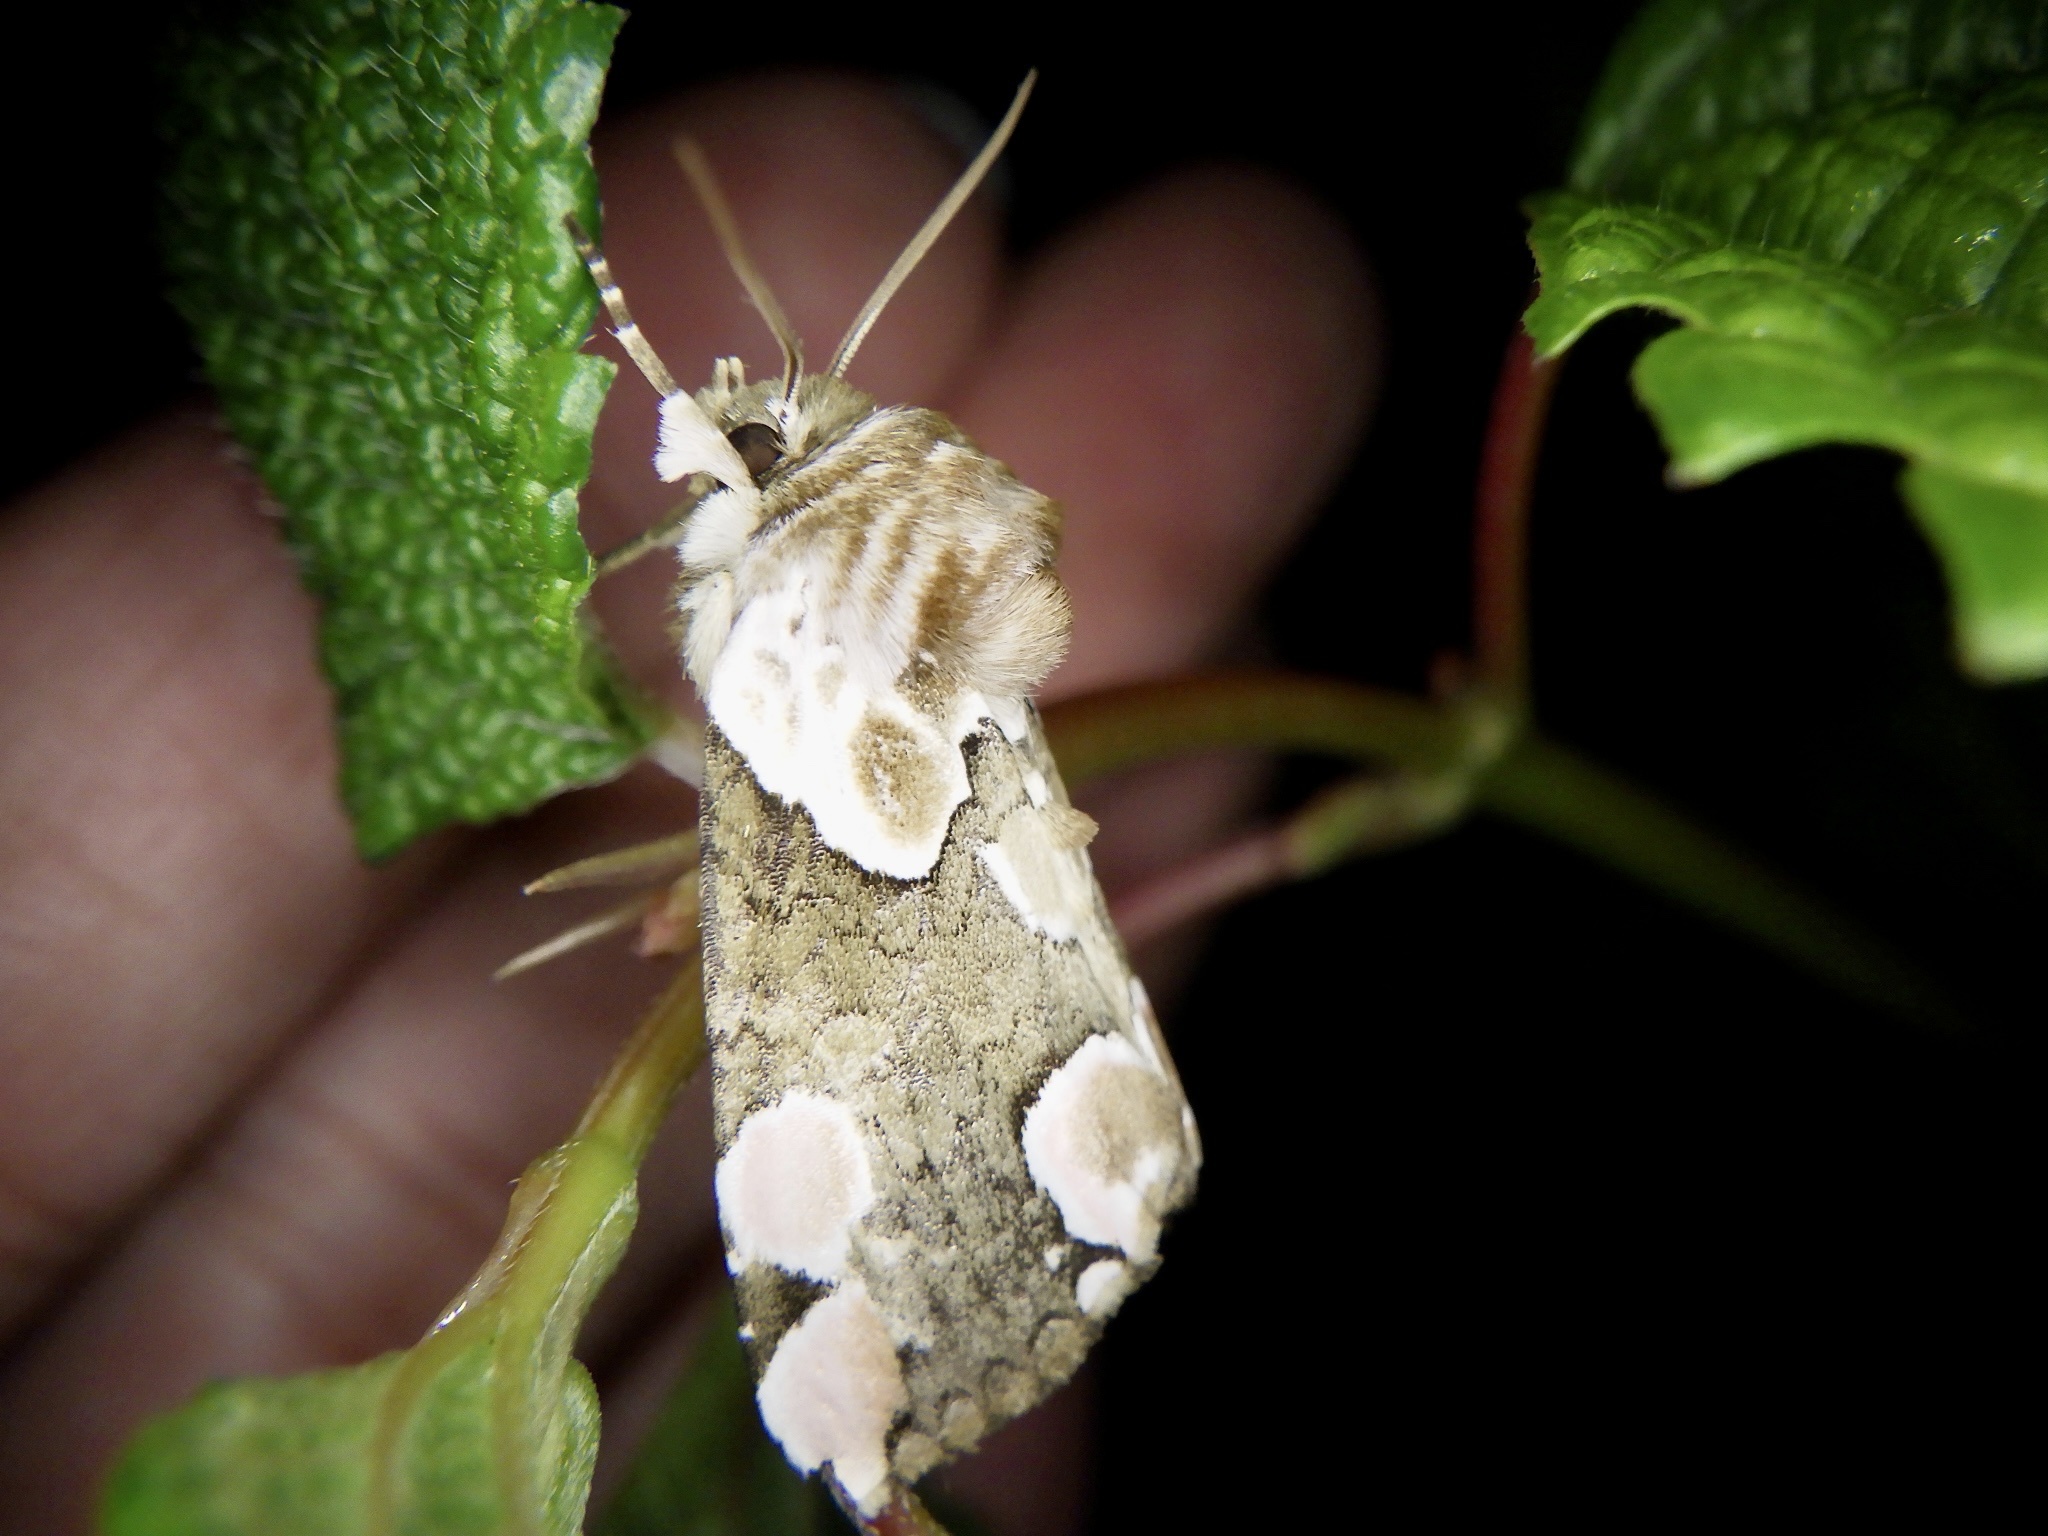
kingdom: Animalia
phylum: Arthropoda
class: Insecta
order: Lepidoptera
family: Drepanidae
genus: Thyatira
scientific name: Thyatira batis
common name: Peach blossom
